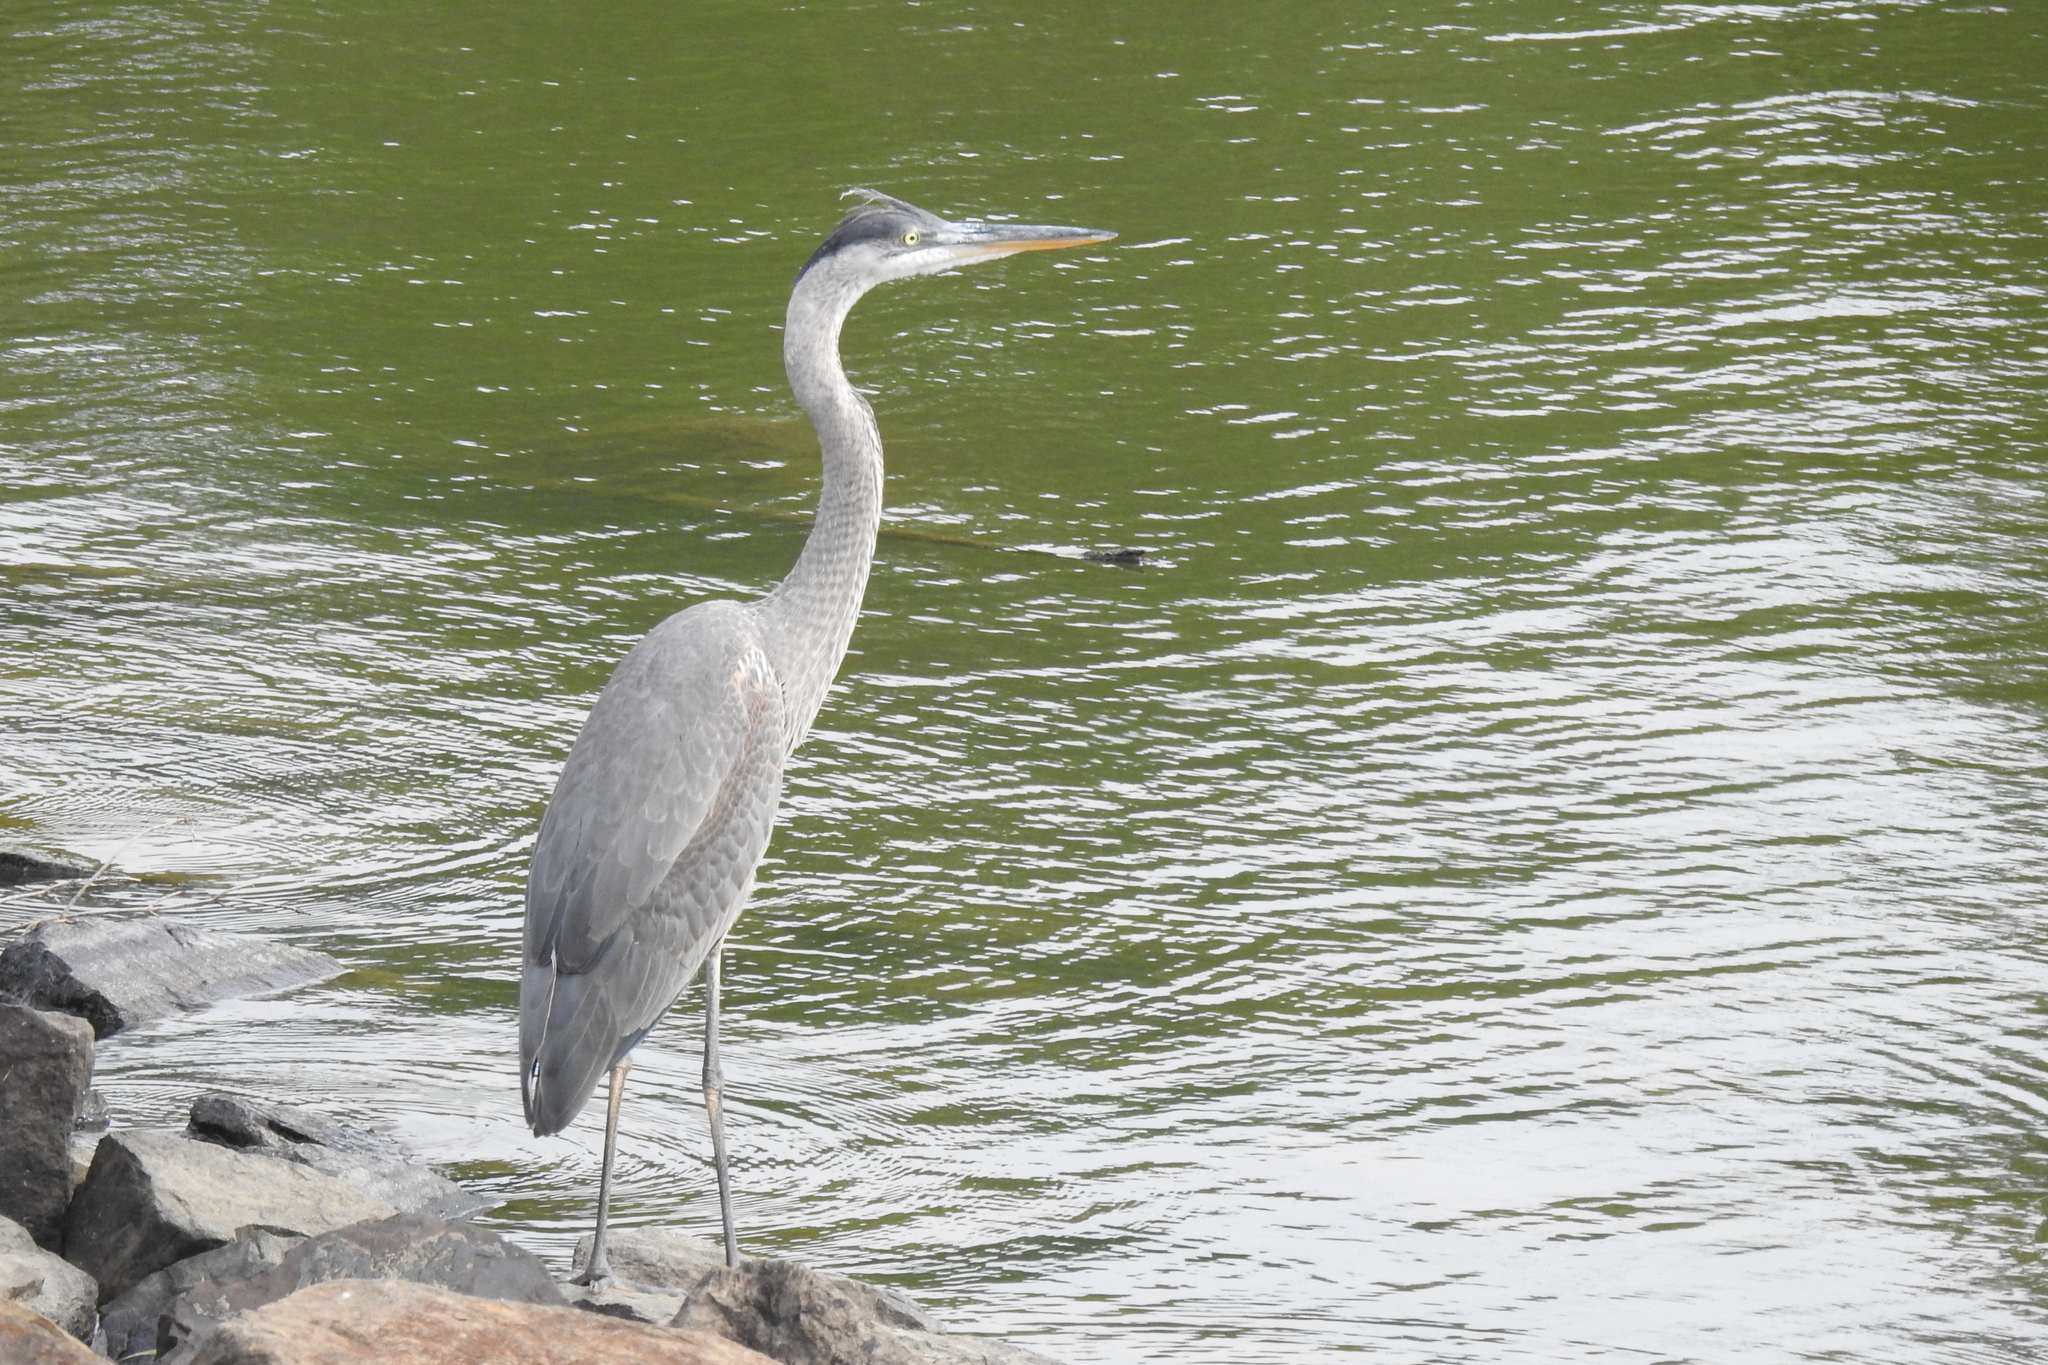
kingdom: Animalia
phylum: Chordata
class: Aves
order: Pelecaniformes
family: Ardeidae
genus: Ardea
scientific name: Ardea herodias
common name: Great blue heron
